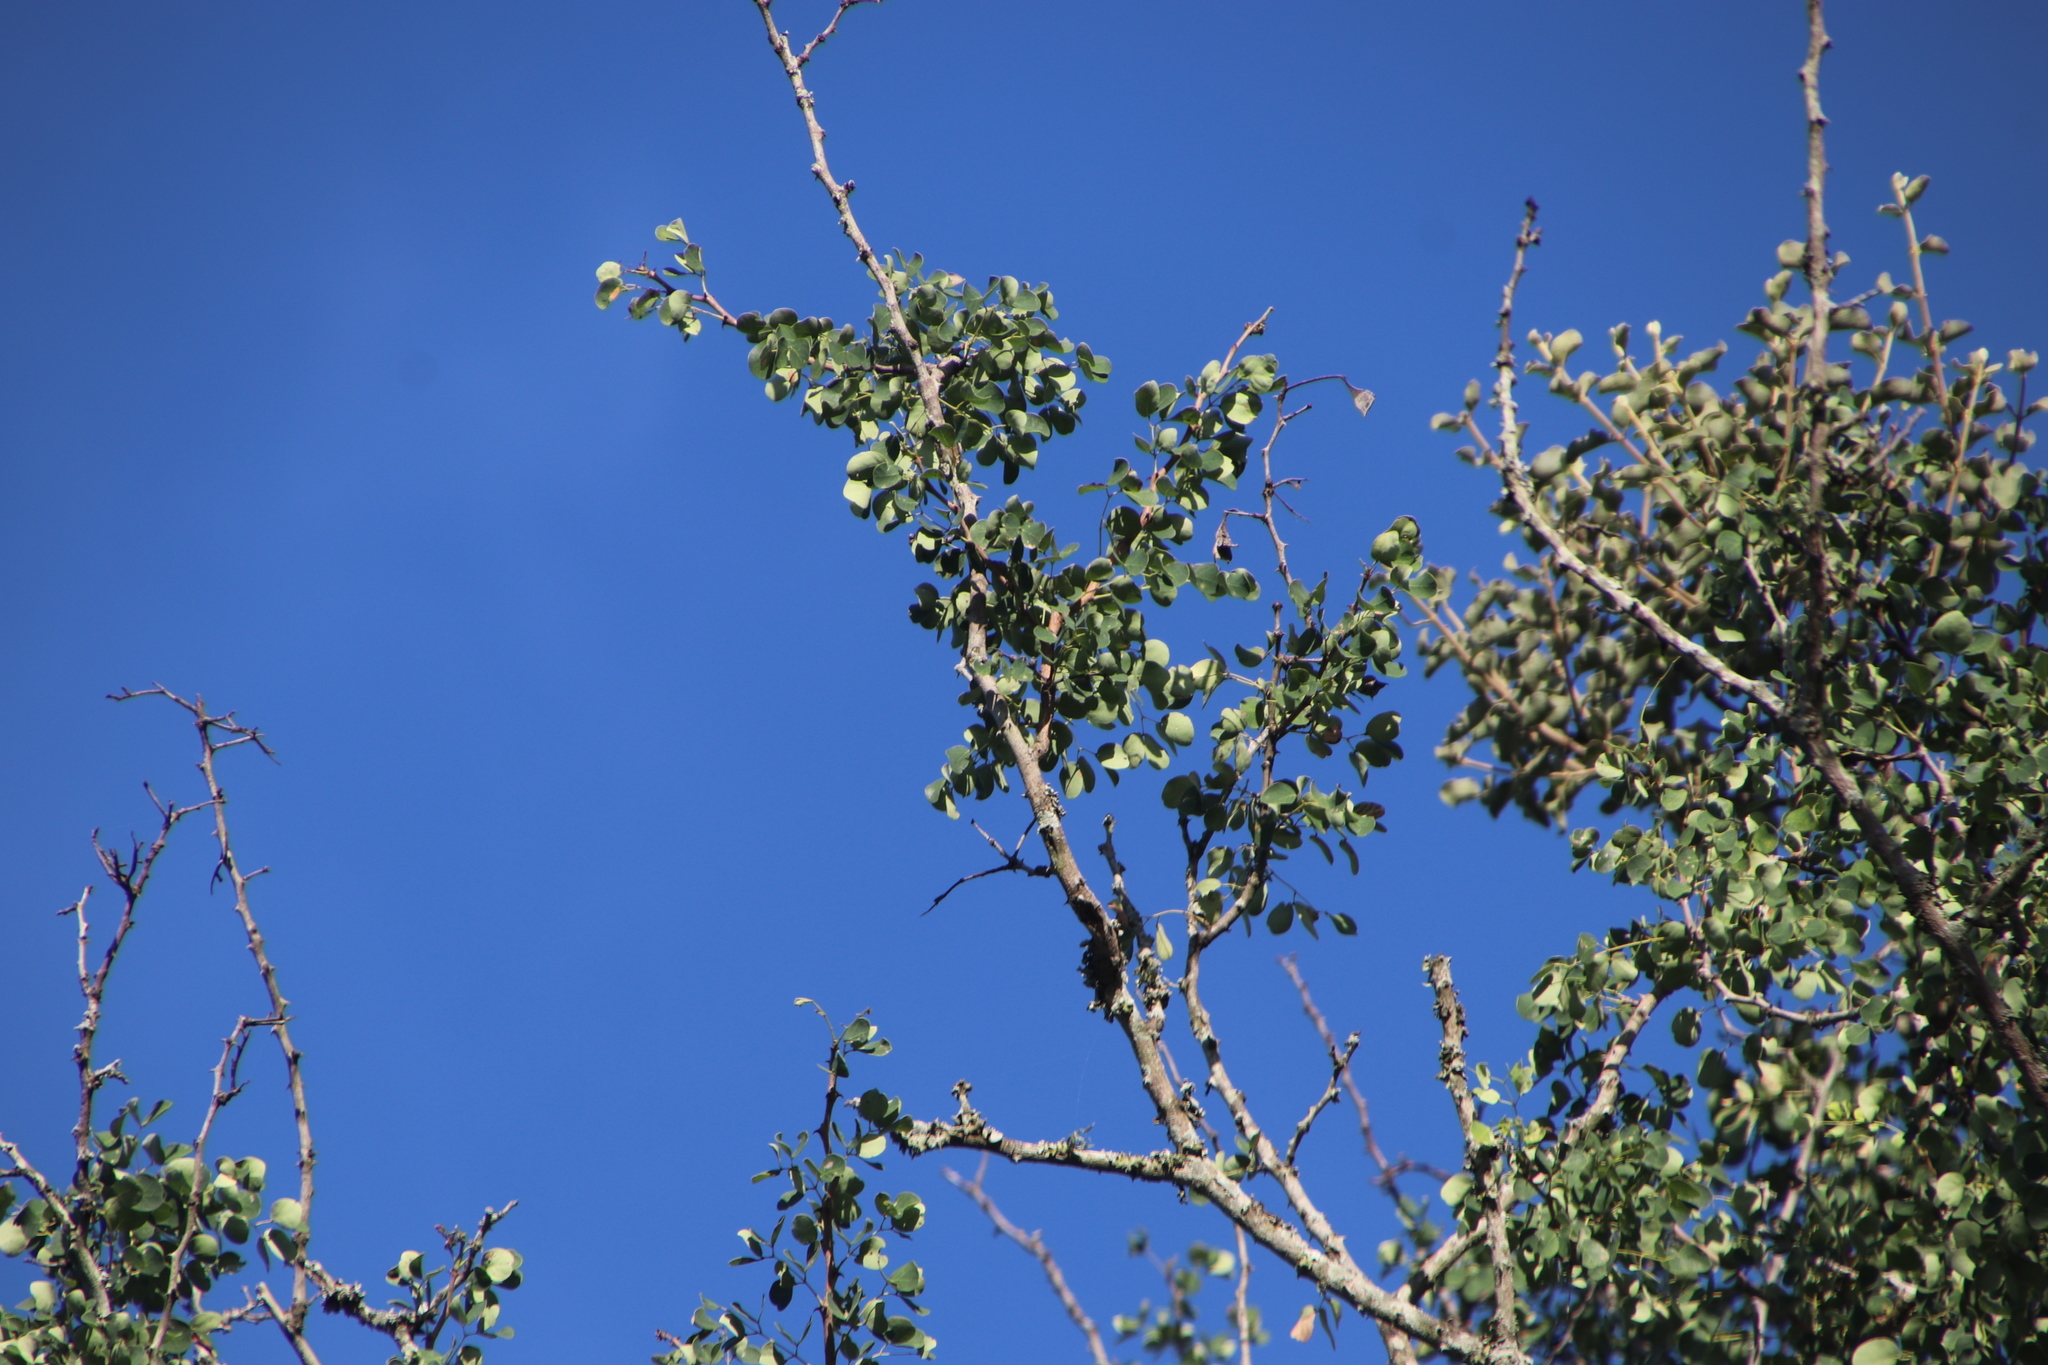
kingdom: Plantae
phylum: Tracheophyta
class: Magnoliopsida
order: Fabales
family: Fabaceae
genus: Senegalia
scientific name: Senegalia nigrescens
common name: Knobthorn
